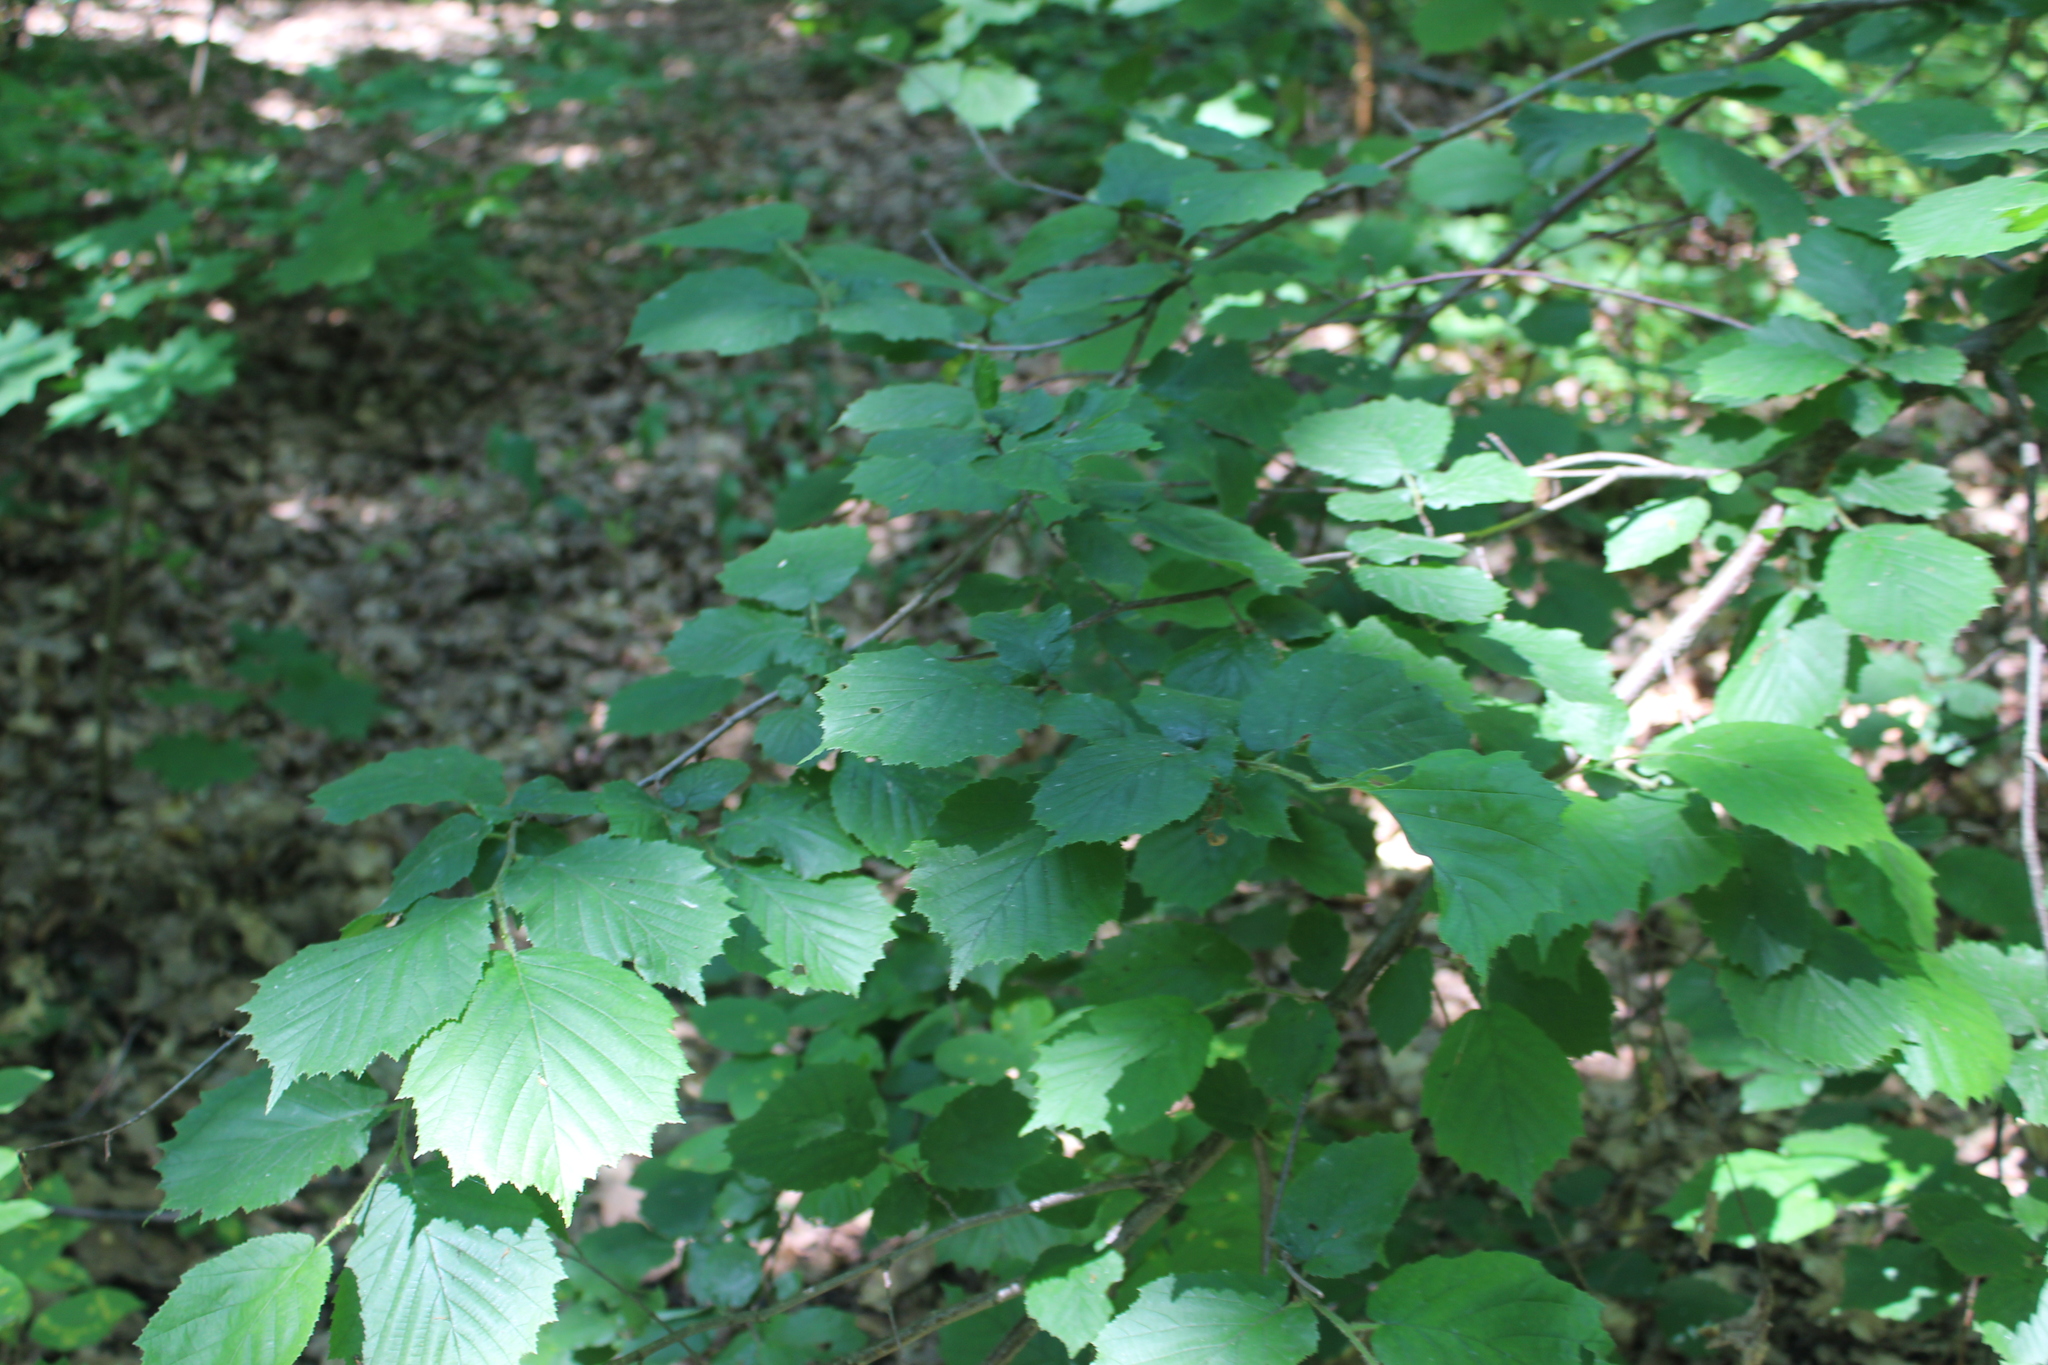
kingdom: Plantae
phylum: Tracheophyta
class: Magnoliopsida
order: Fagales
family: Betulaceae
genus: Corylus
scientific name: Corylus avellana
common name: European hazel
